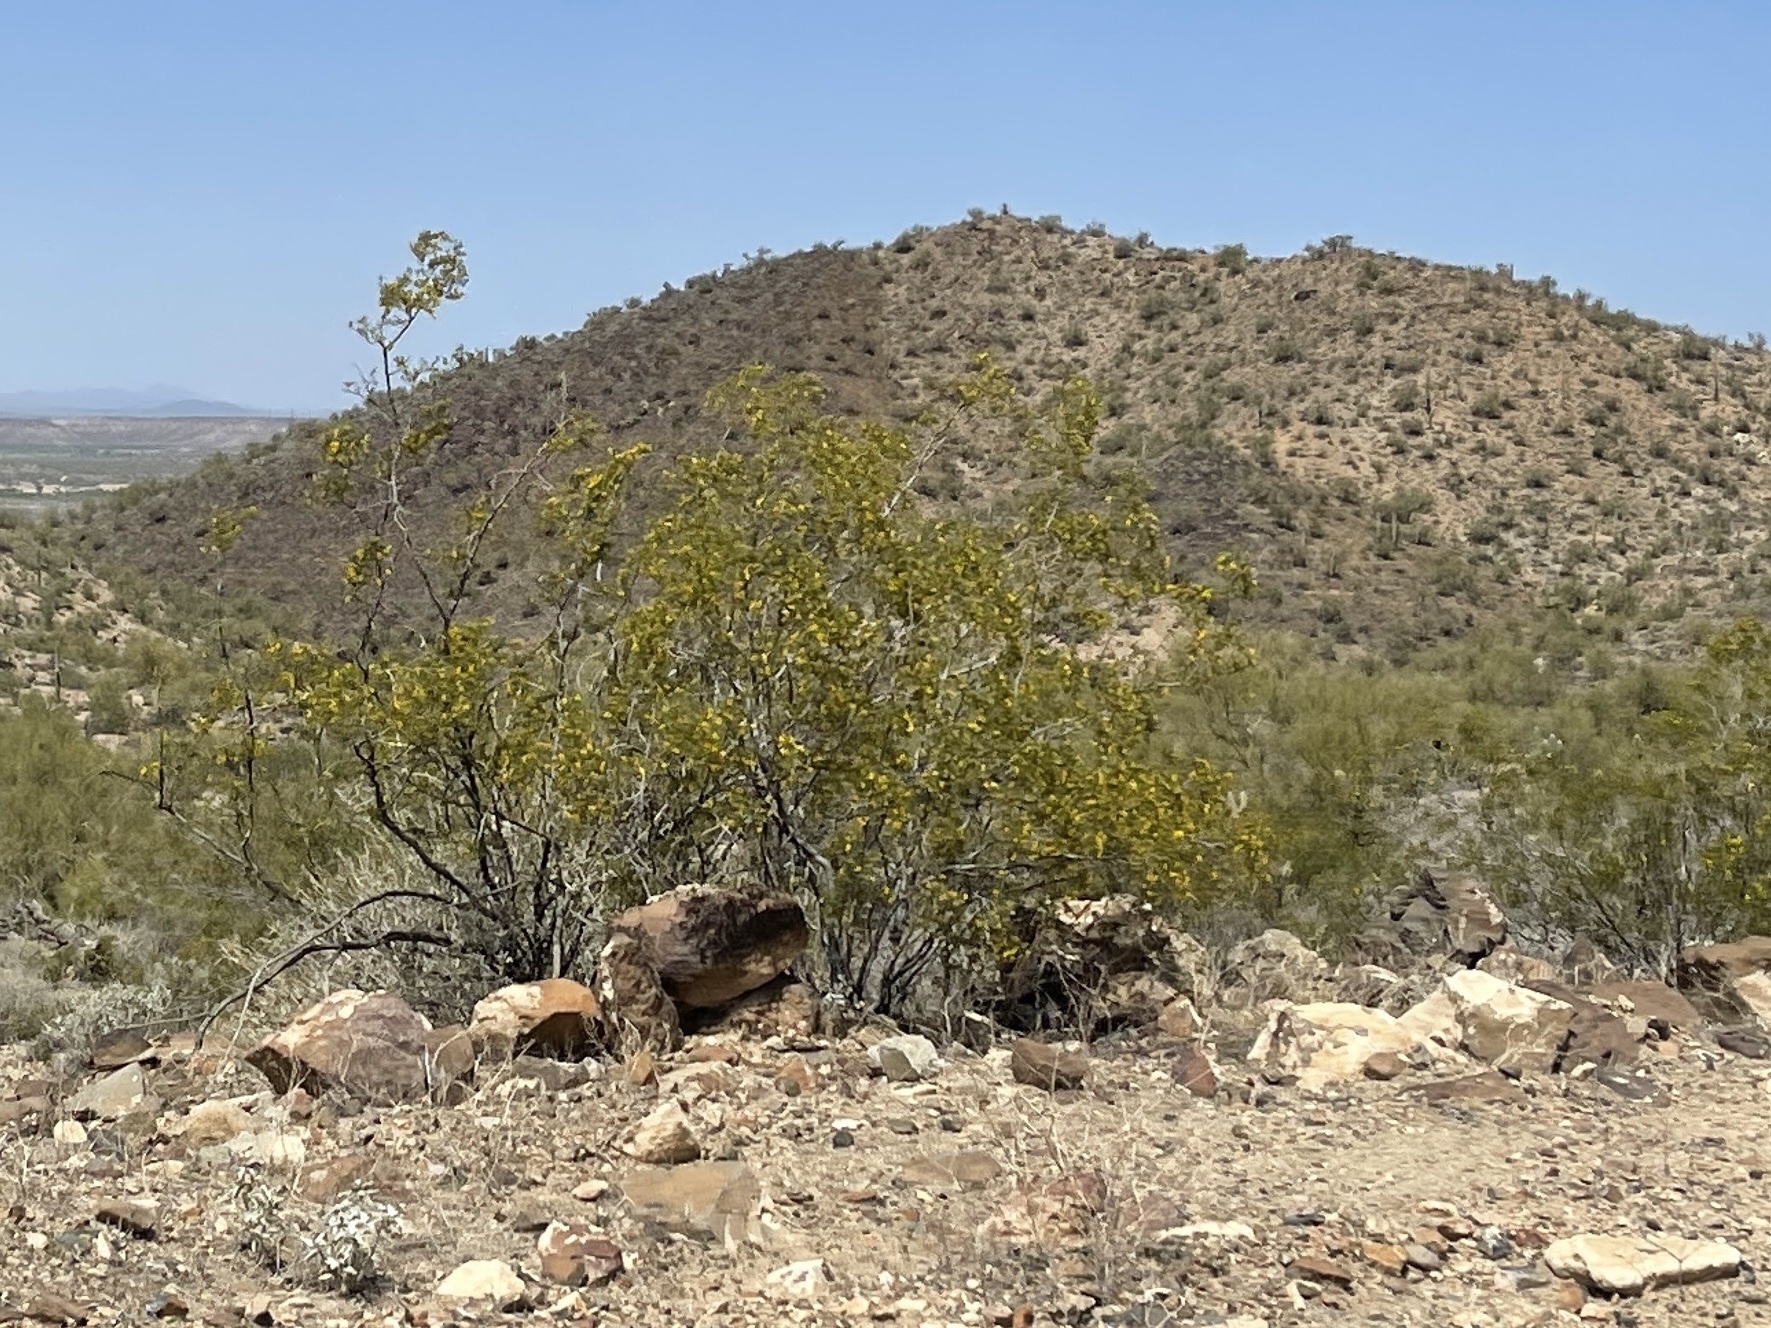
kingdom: Plantae
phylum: Tracheophyta
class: Magnoliopsida
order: Zygophyllales
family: Zygophyllaceae
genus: Larrea
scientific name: Larrea tridentata
